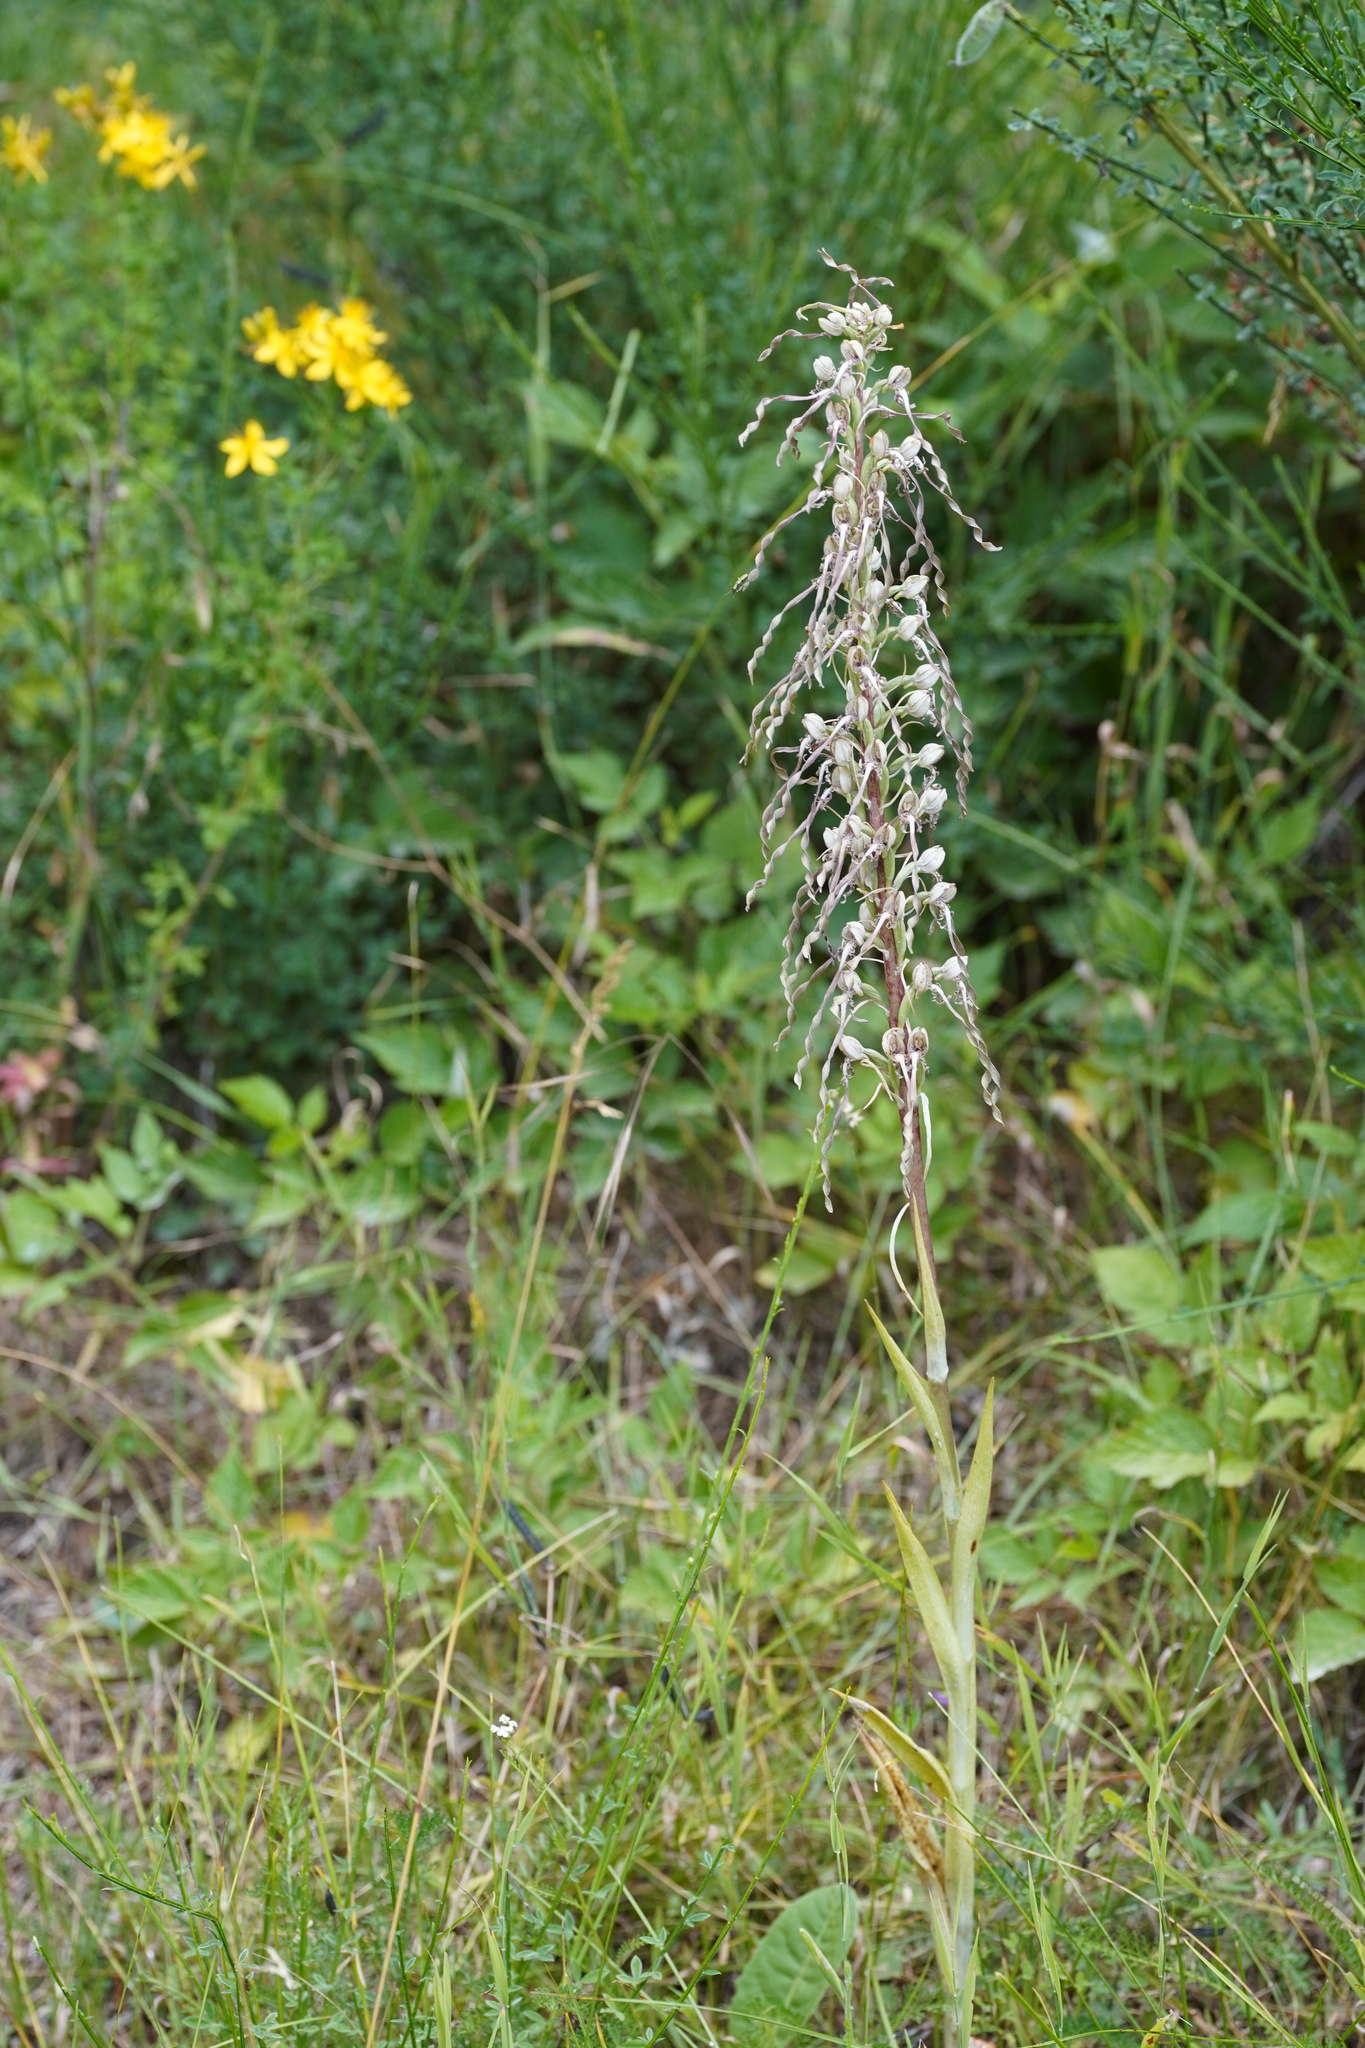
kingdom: Plantae
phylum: Tracheophyta
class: Liliopsida
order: Asparagales
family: Orchidaceae
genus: Himantoglossum
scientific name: Himantoglossum hircinum
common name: Lizard orchid
